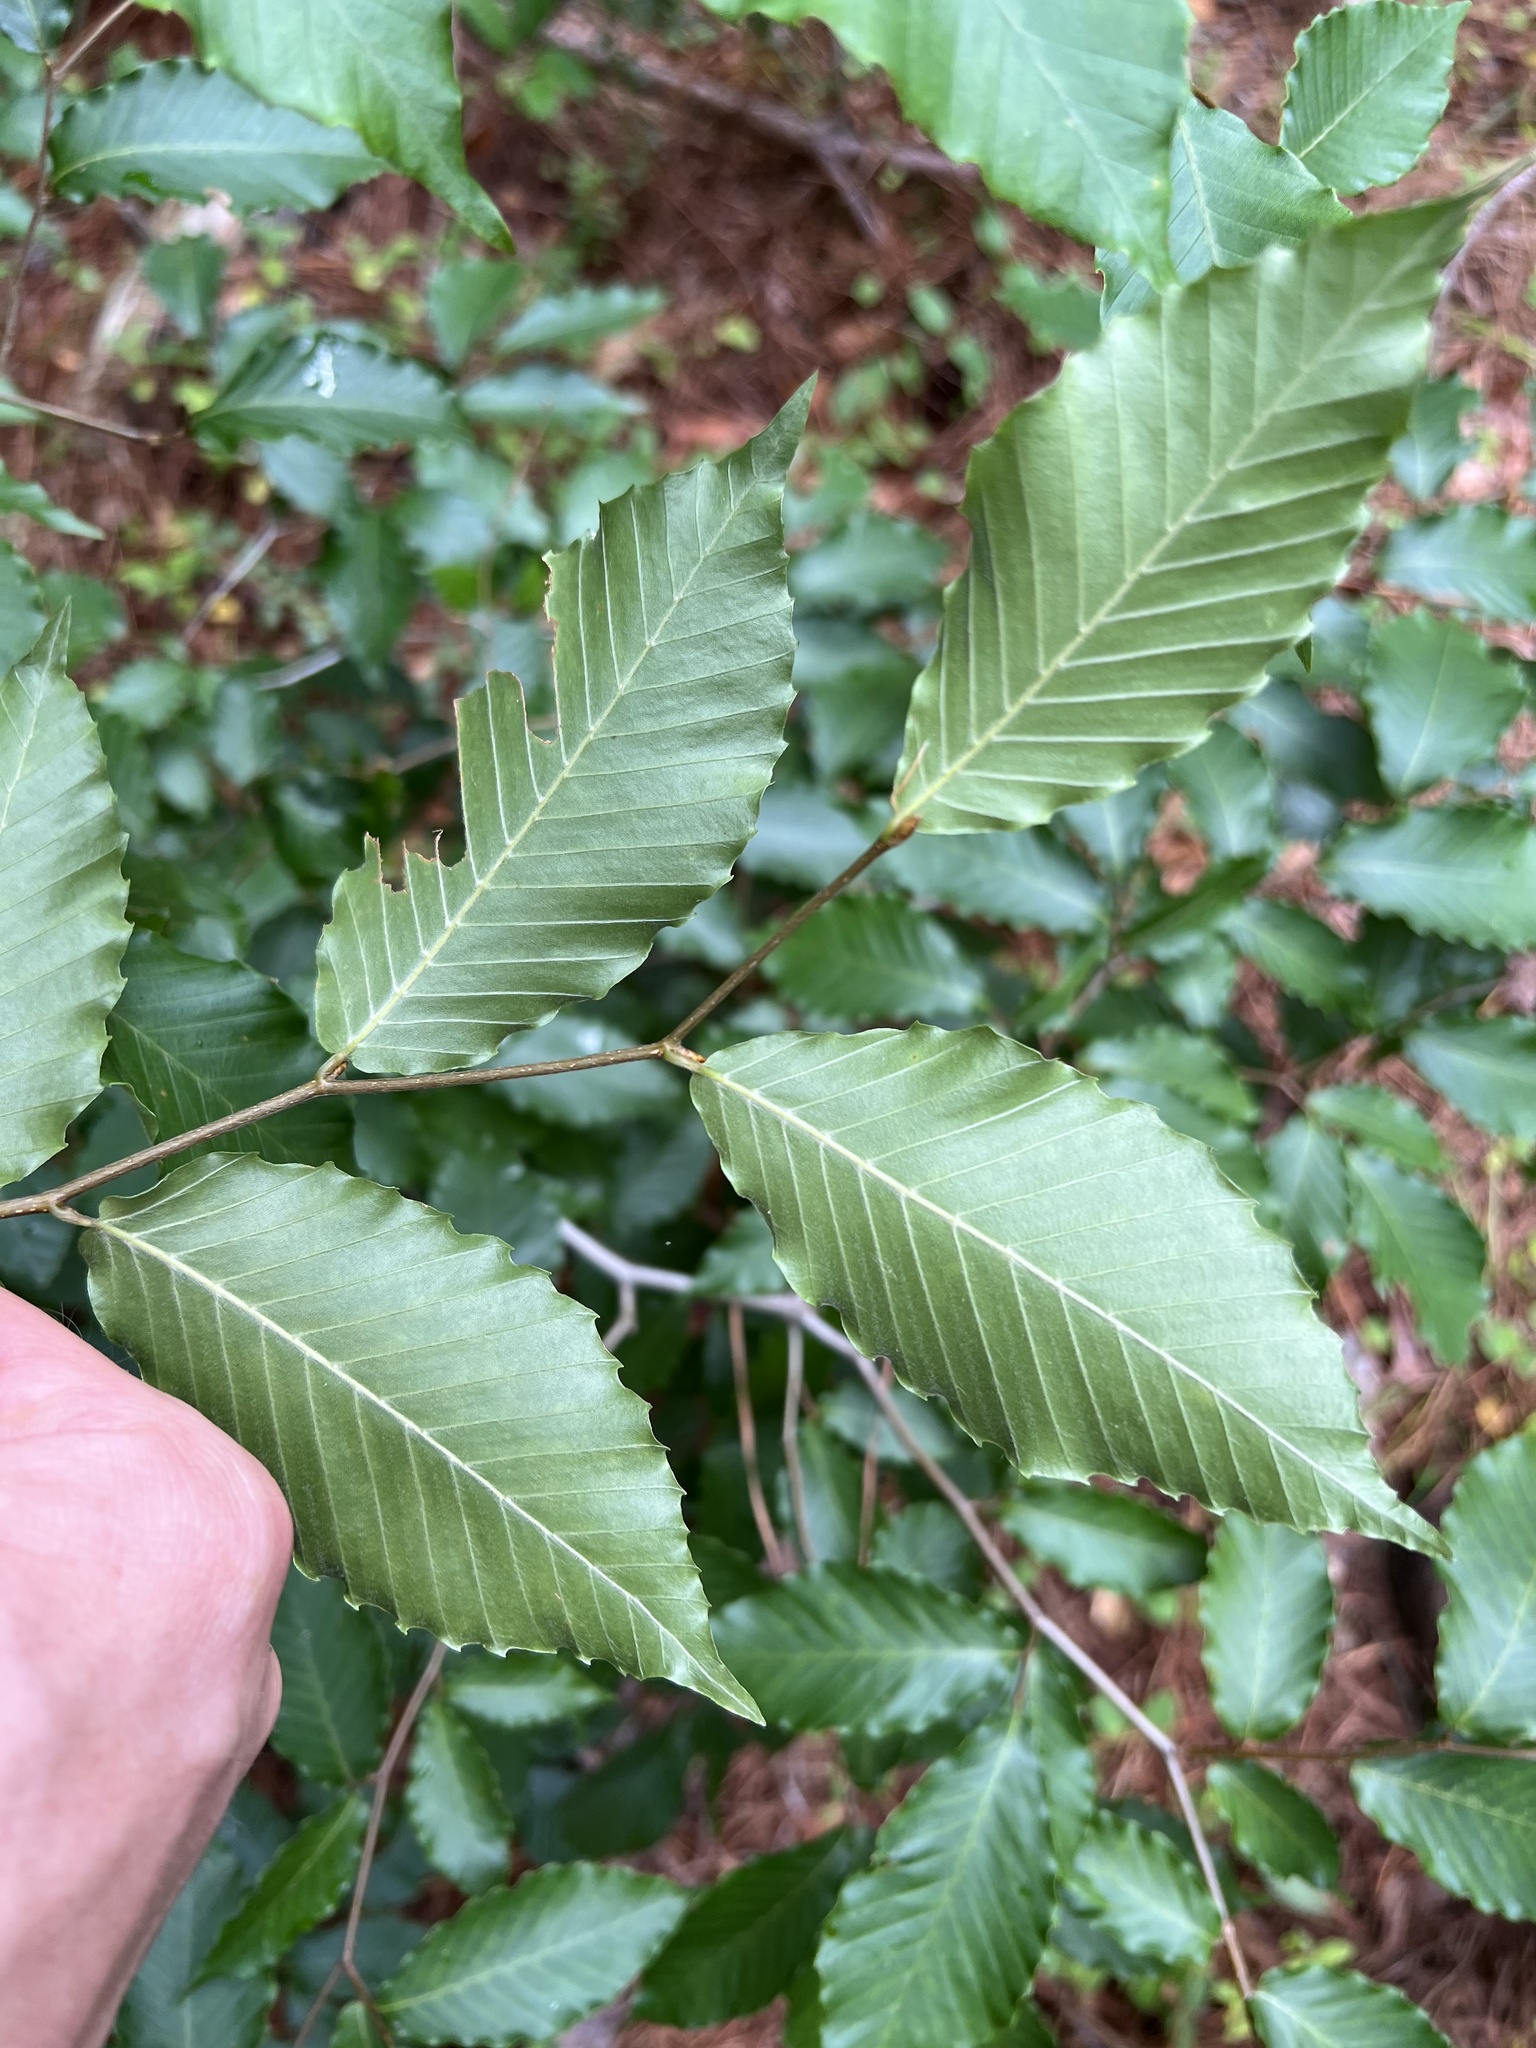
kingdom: Plantae
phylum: Tracheophyta
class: Magnoliopsida
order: Fagales
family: Fagaceae
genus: Fagus
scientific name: Fagus grandifolia
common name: American beech
